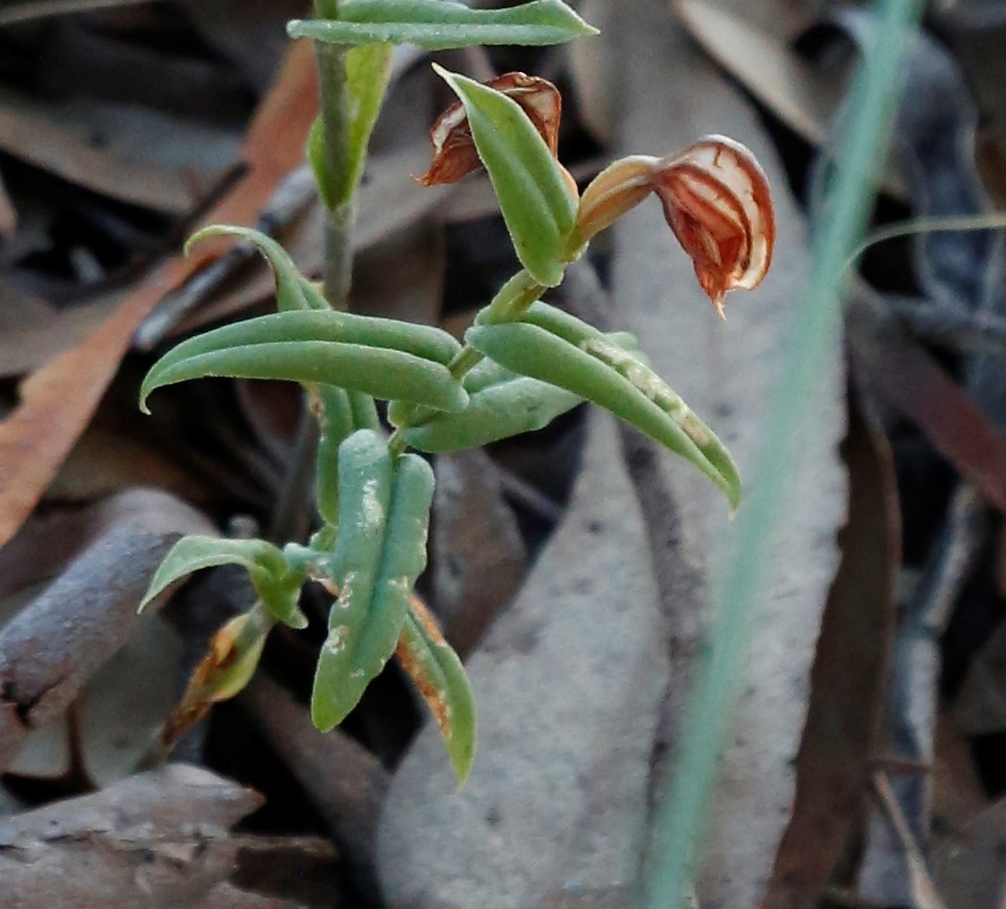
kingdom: Plantae
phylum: Tracheophyta
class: Liliopsida
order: Asparagales
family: Orchidaceae
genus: Pterostylis
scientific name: Pterostylis sanguinea
